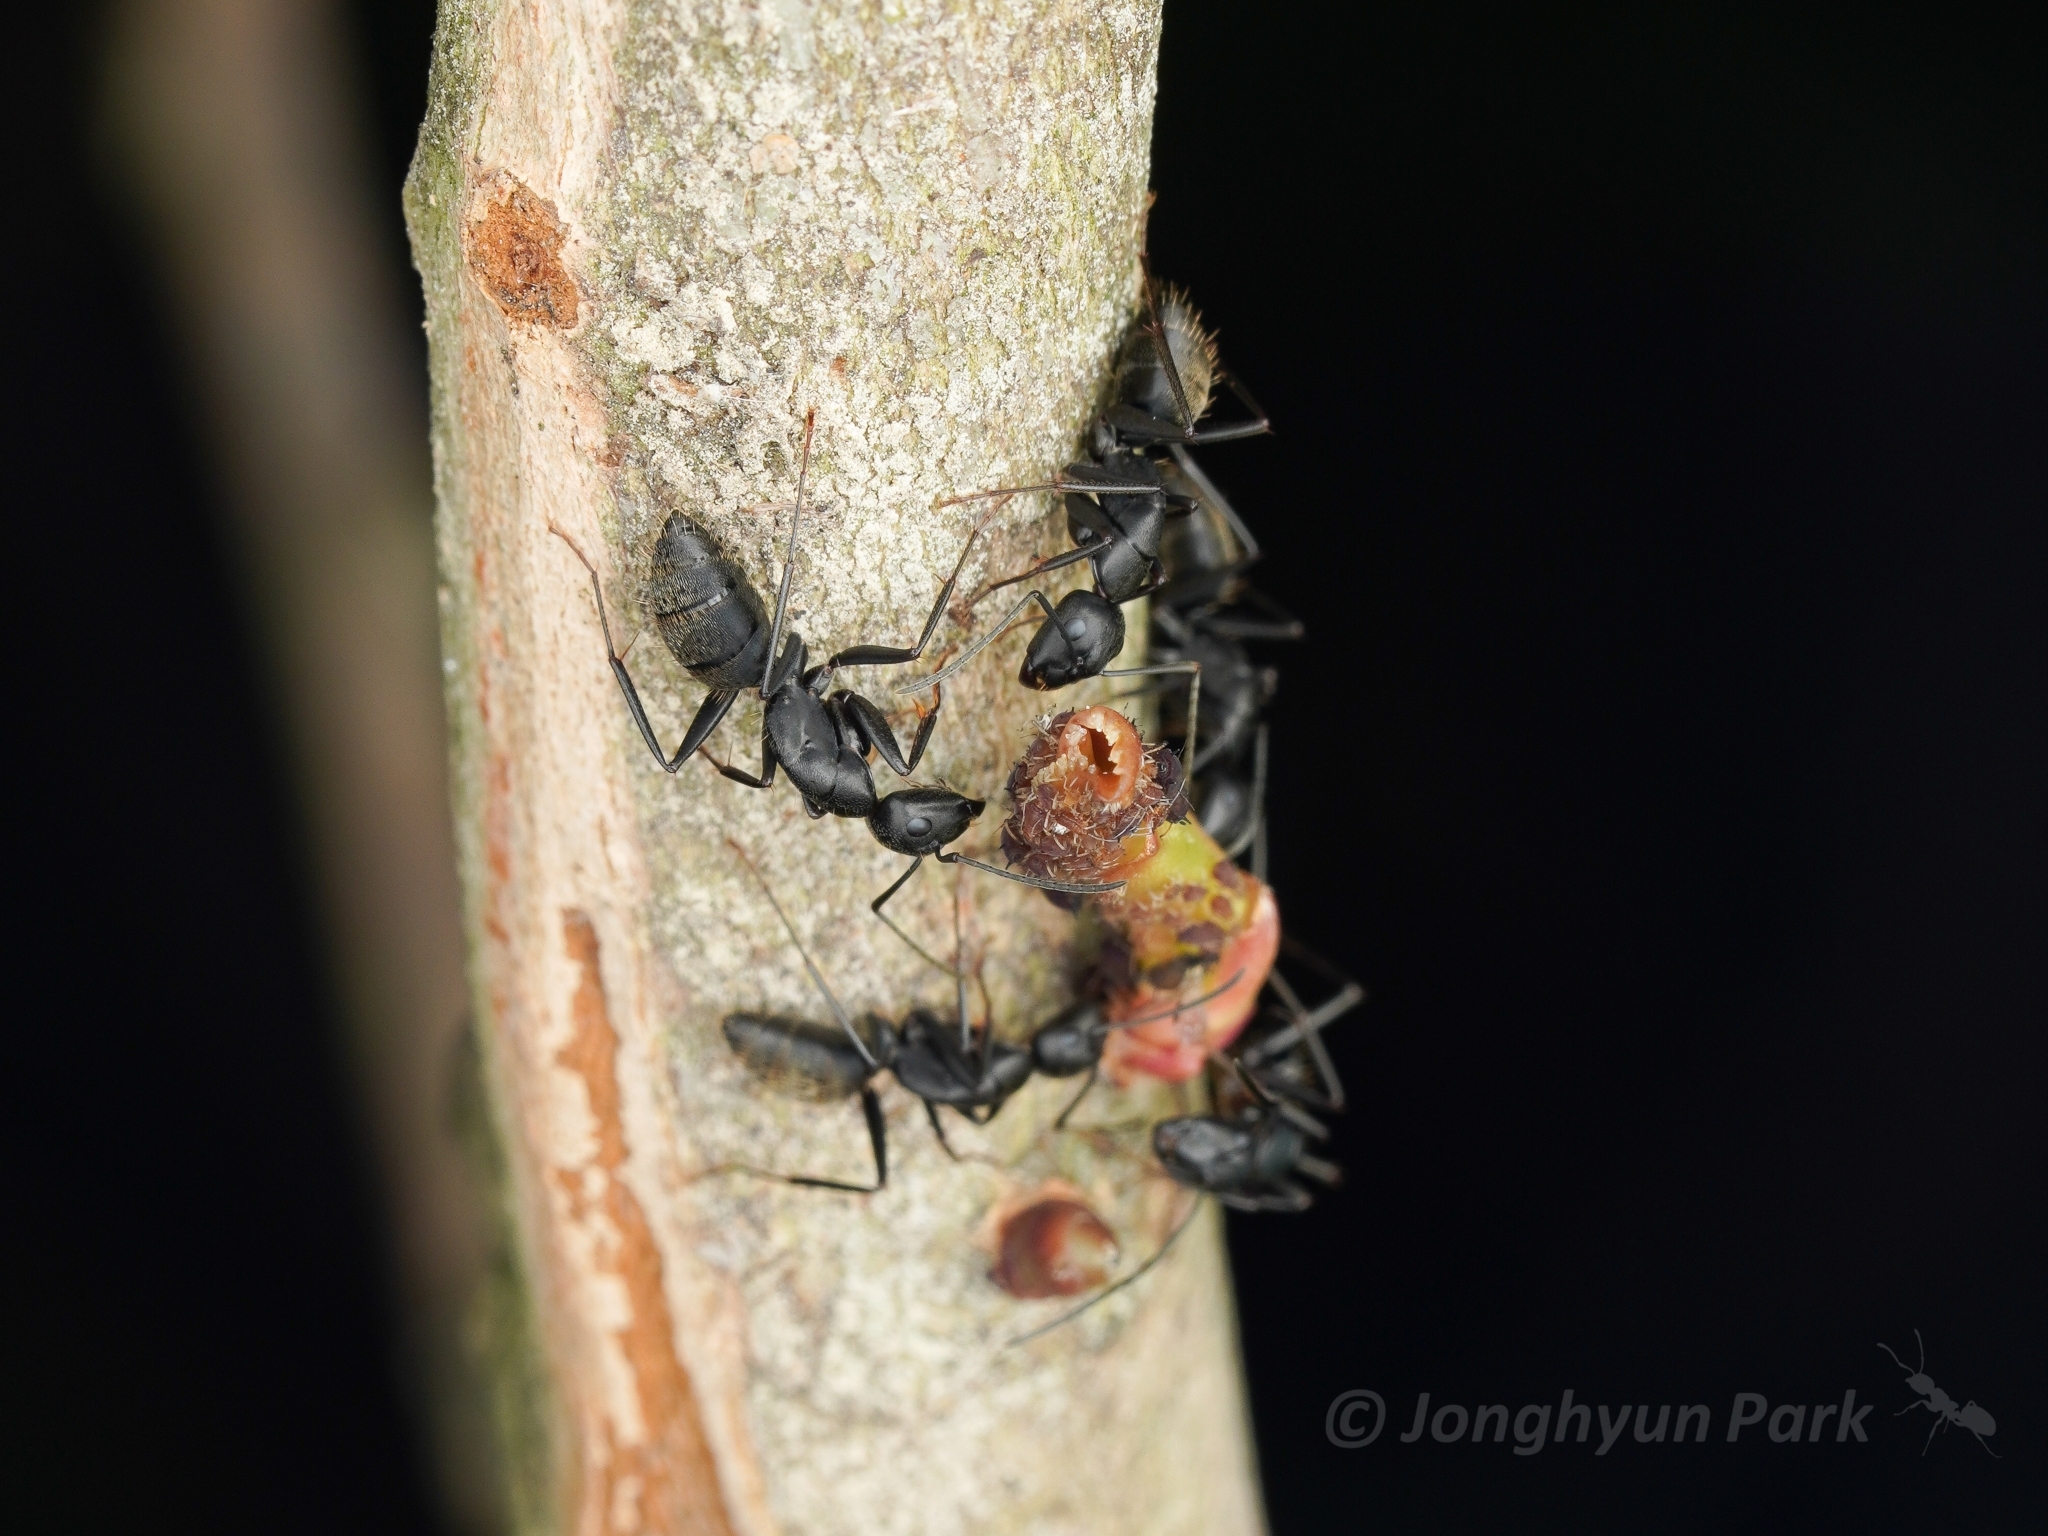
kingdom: Animalia
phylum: Arthropoda
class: Insecta
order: Hymenoptera
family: Formicidae
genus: Camponotus
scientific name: Camponotus japonicus
